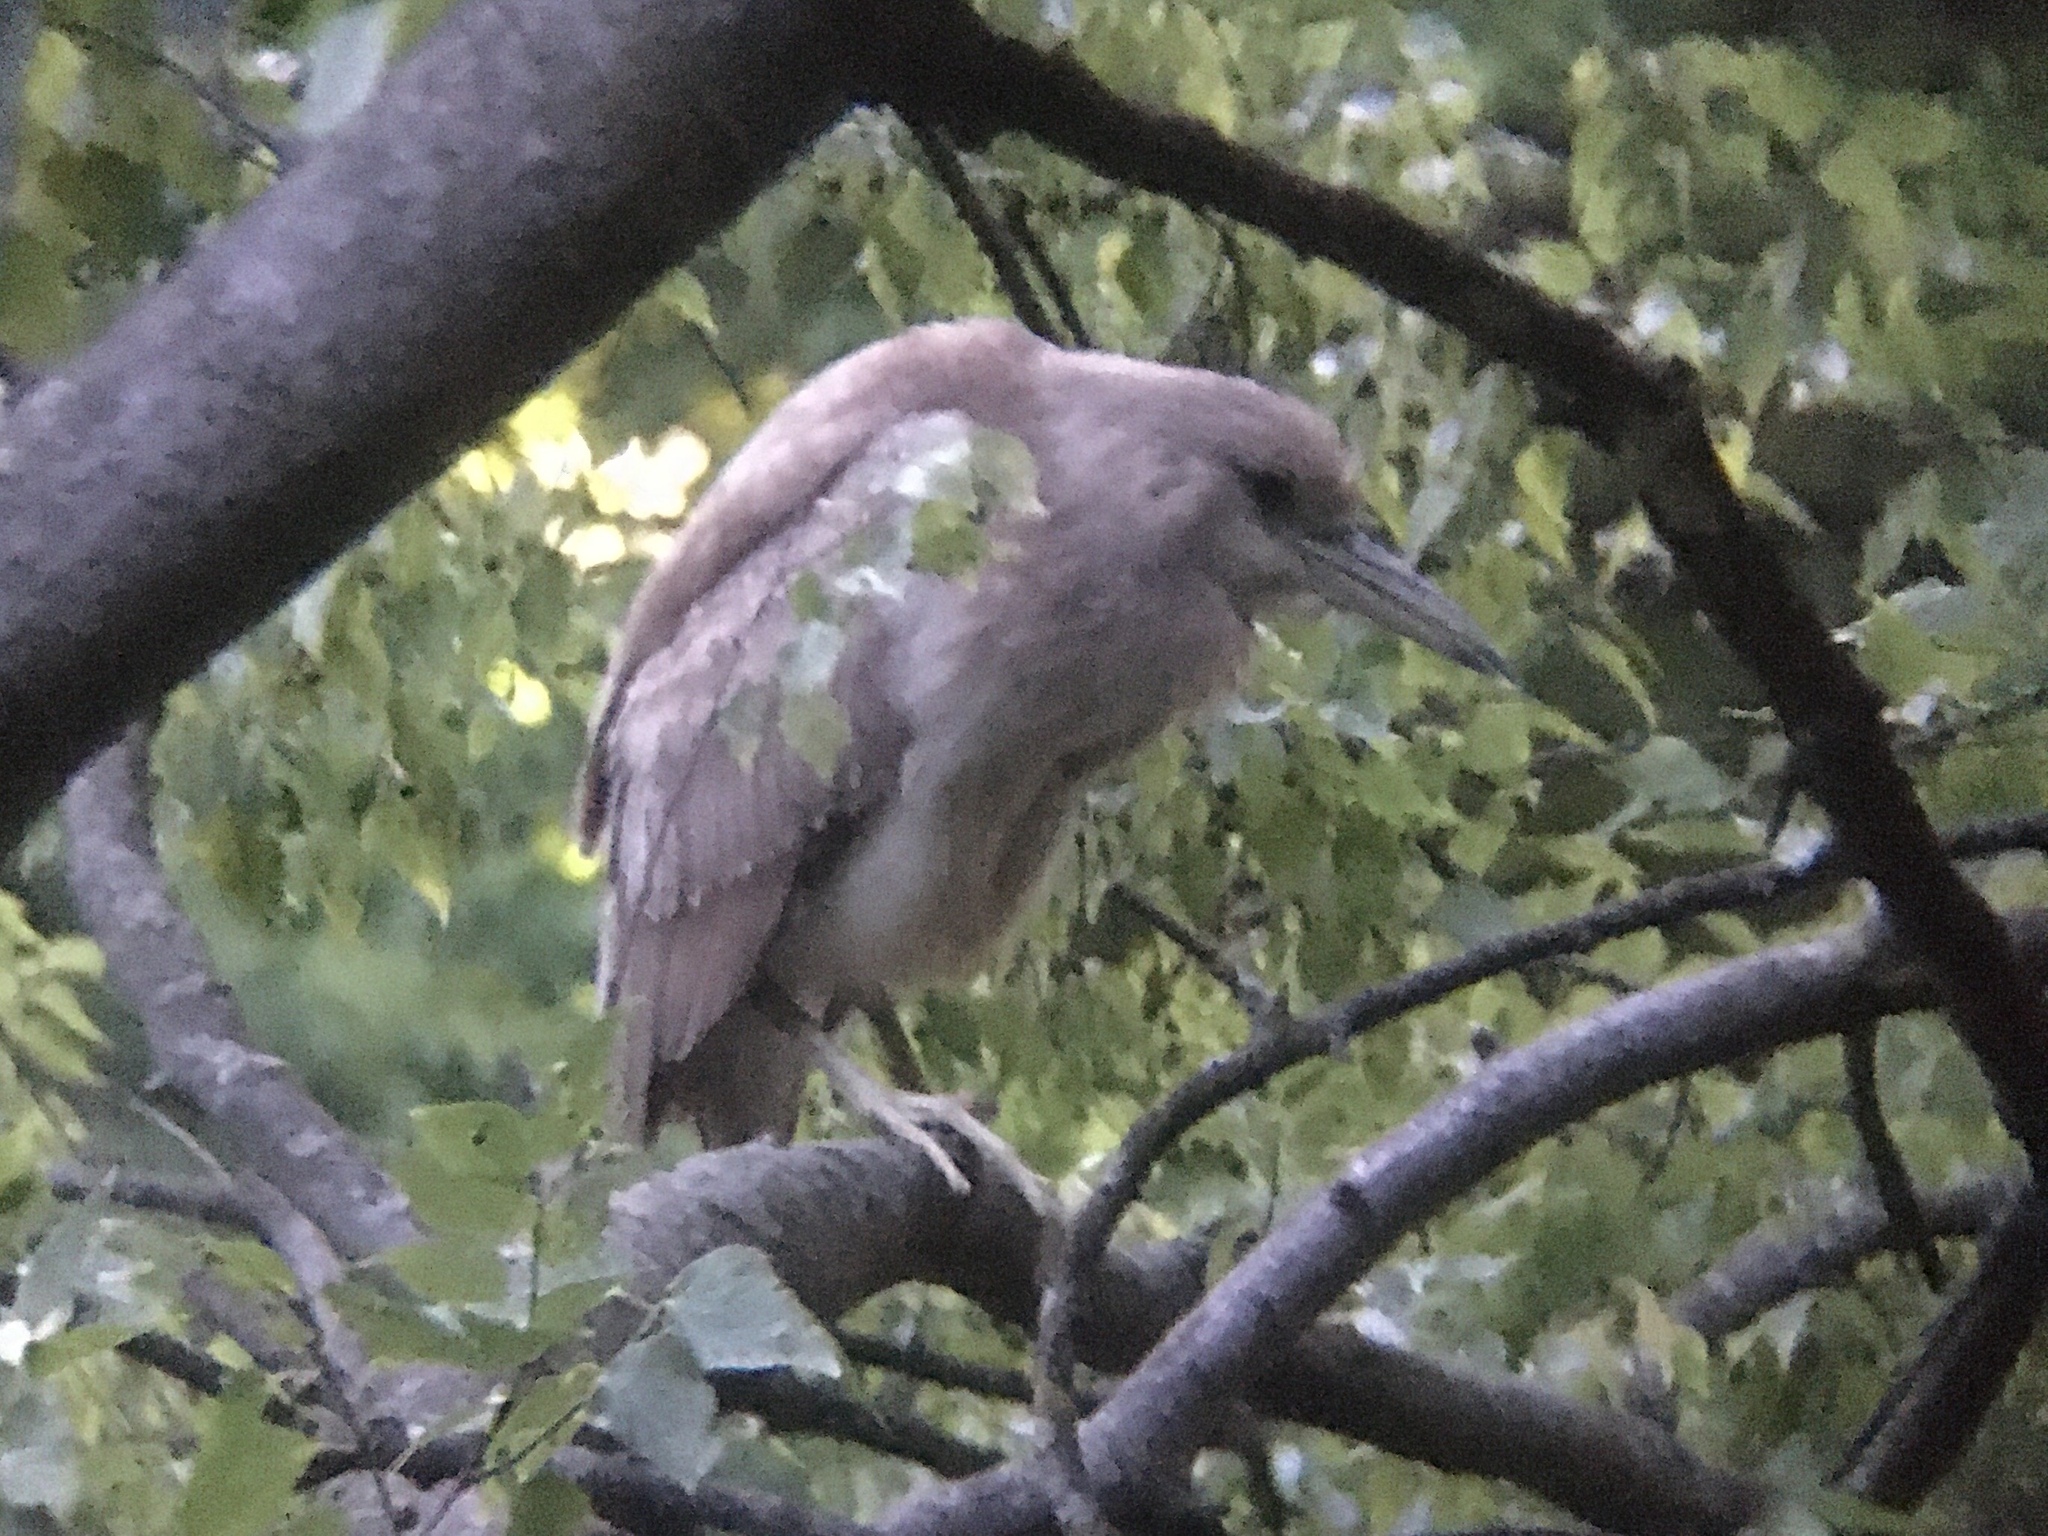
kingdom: Animalia
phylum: Chordata
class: Aves
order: Pelecaniformes
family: Ardeidae
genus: Nycticorax
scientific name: Nycticorax nycticorax
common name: Black-crowned night heron
